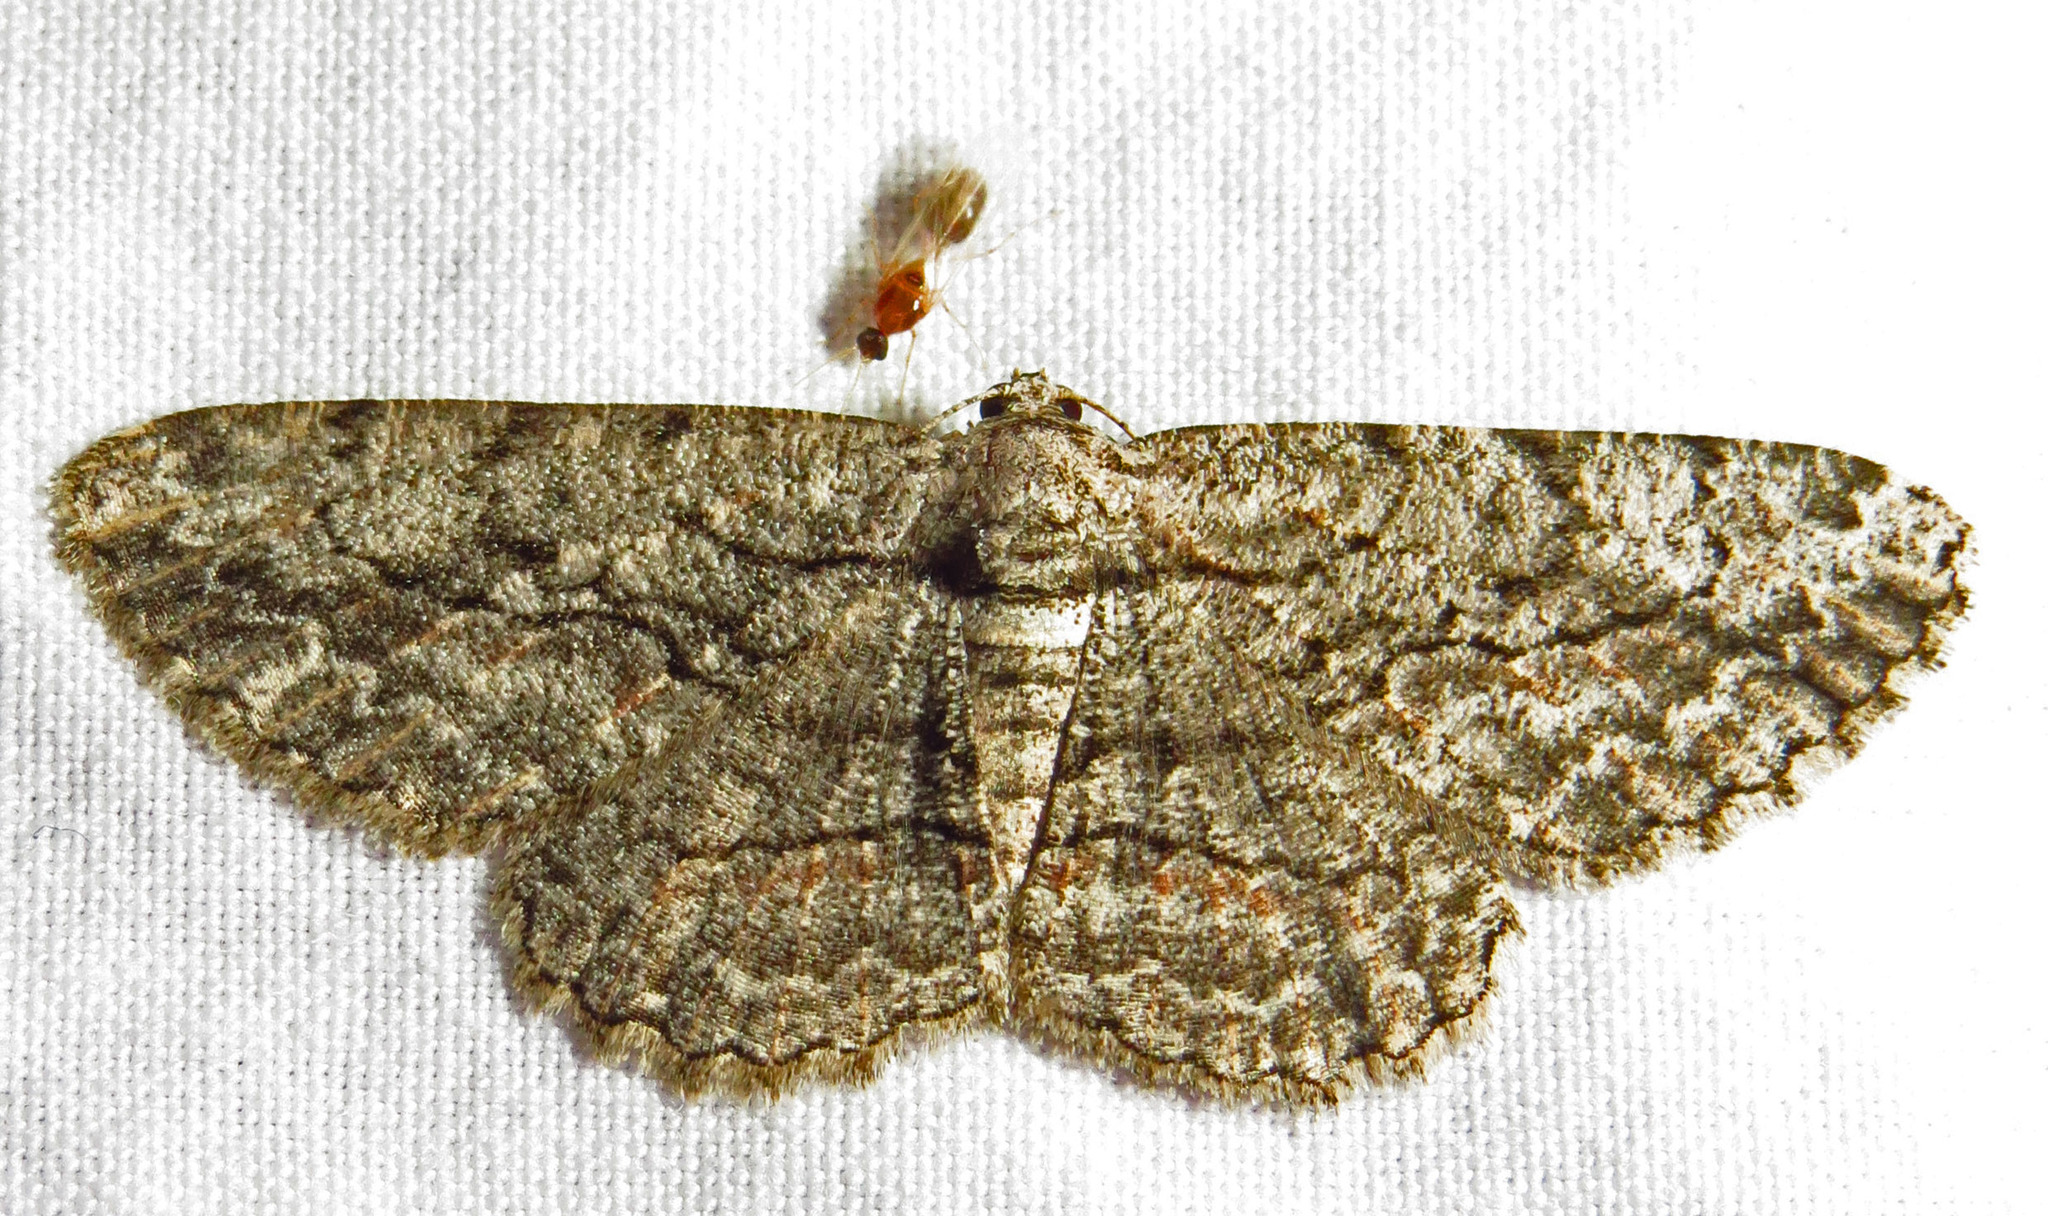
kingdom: Animalia
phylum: Arthropoda
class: Insecta
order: Lepidoptera
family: Geometridae
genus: Anavitrinella
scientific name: Anavitrinella pampinaria
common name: Common gray
